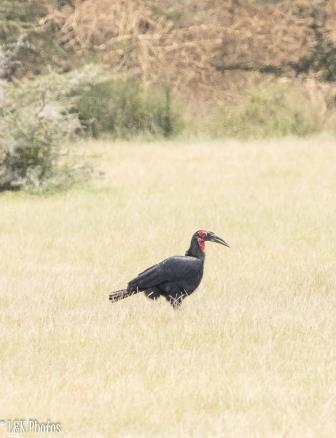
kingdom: Animalia
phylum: Chordata
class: Aves
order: Bucerotiformes
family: Bucorvidae
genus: Bucorvus
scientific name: Bucorvus leadbeateri
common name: Southern ground-hornbill
